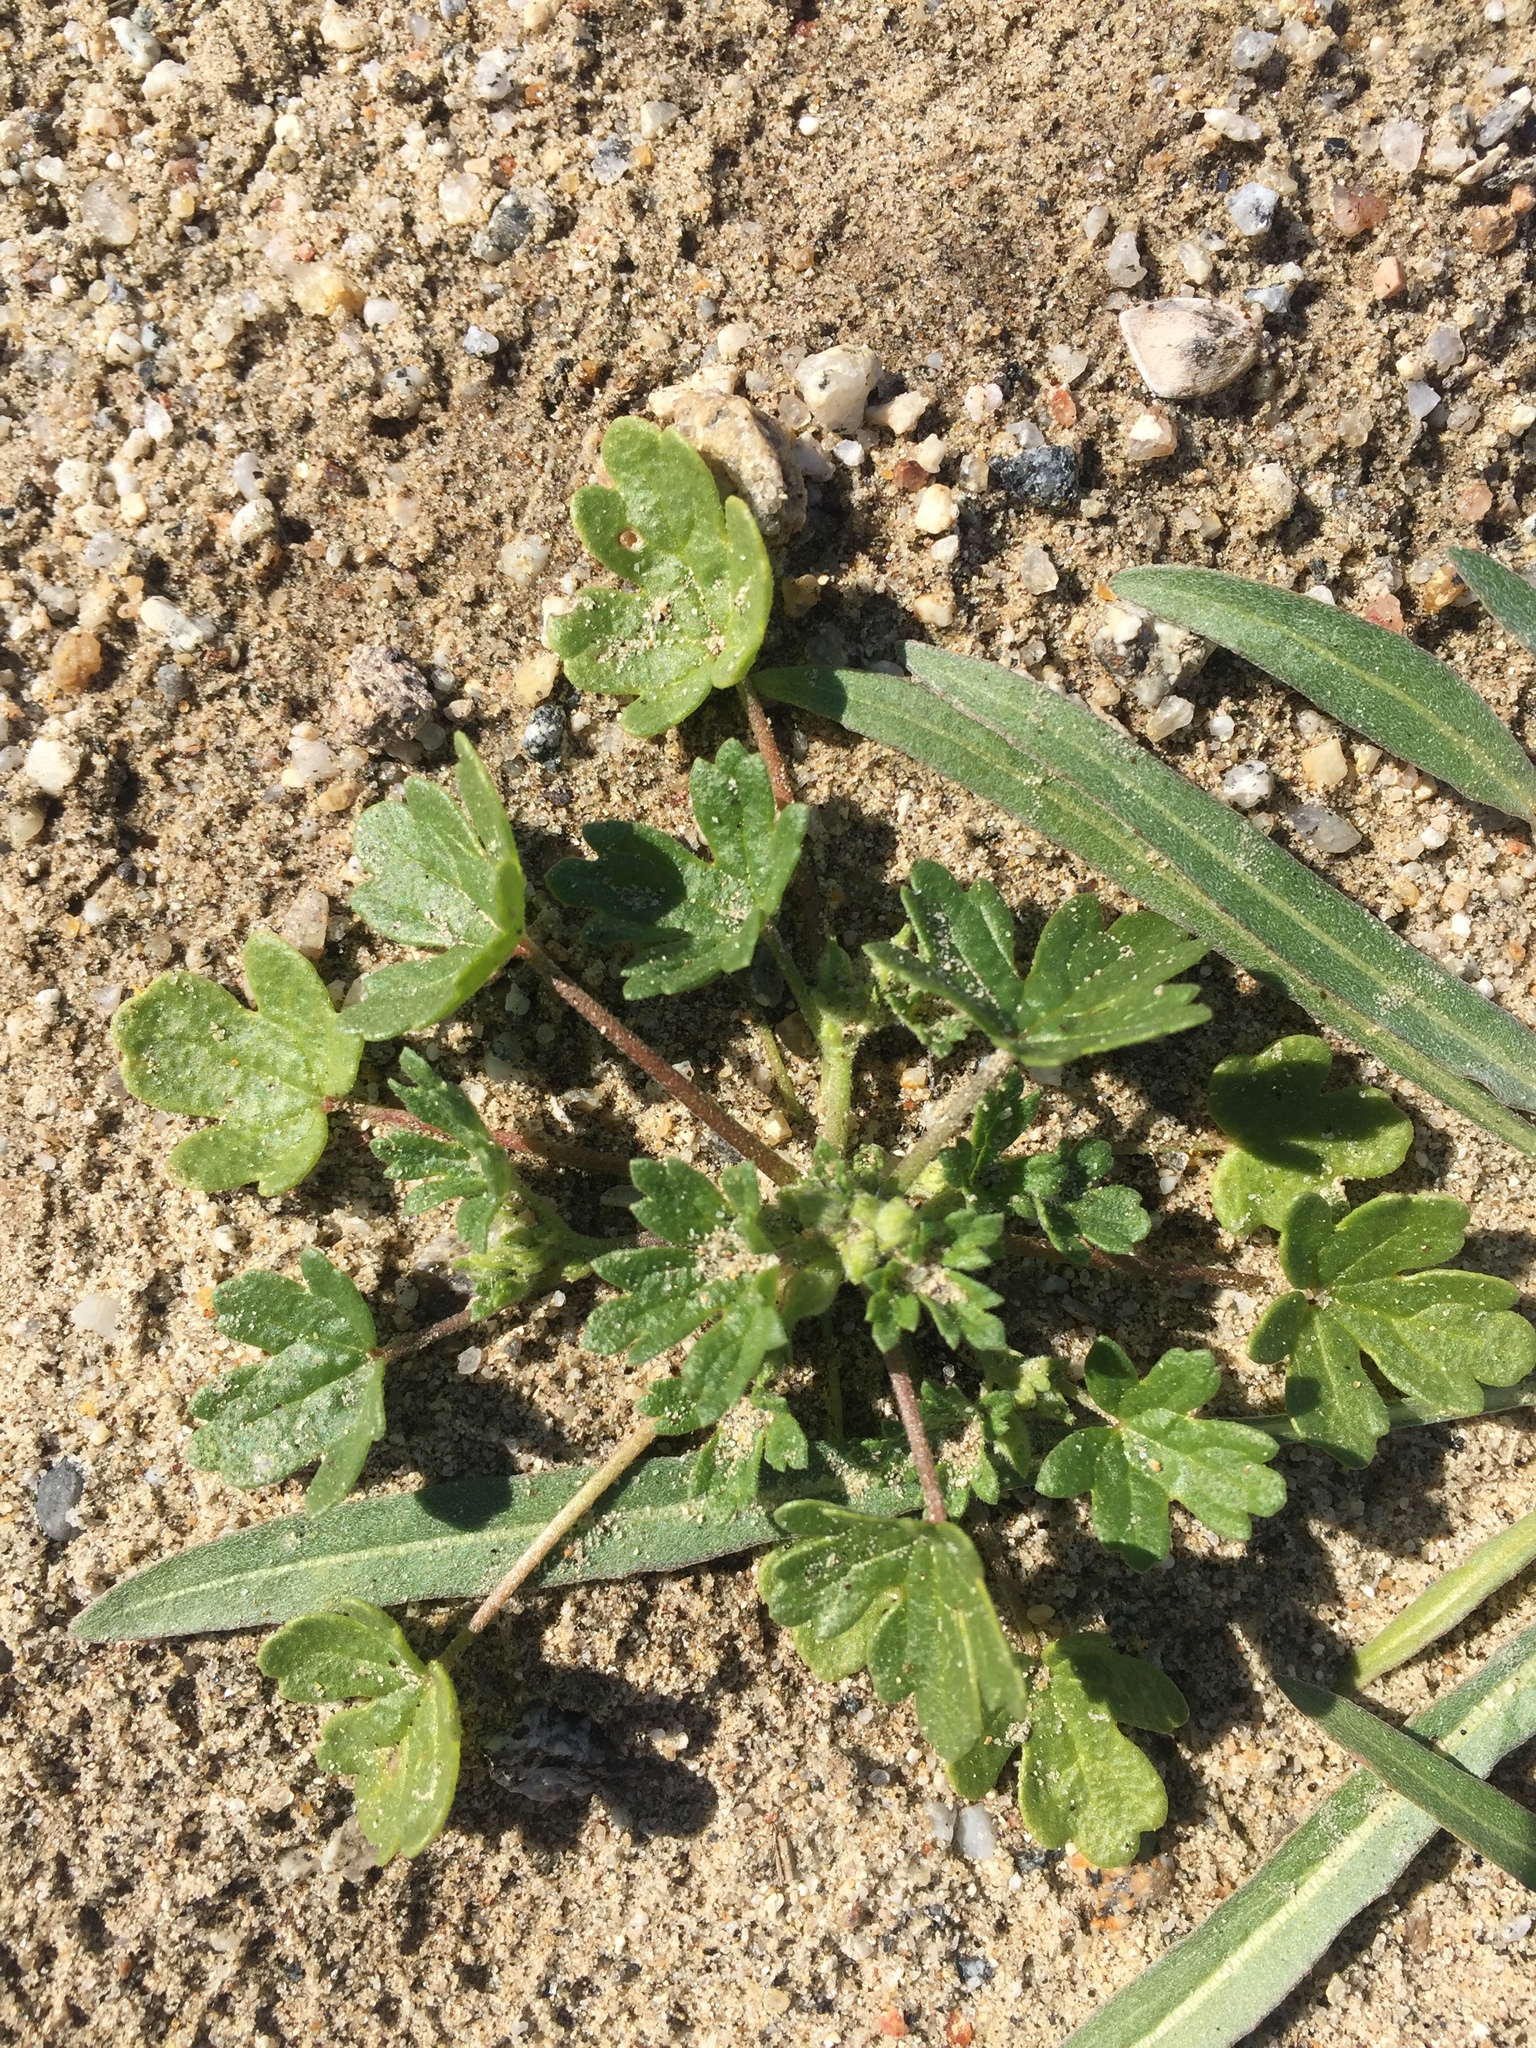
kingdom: Plantae
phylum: Tracheophyta
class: Magnoliopsida
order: Malvales
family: Malvaceae
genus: Eremalche
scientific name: Eremalche exilis
